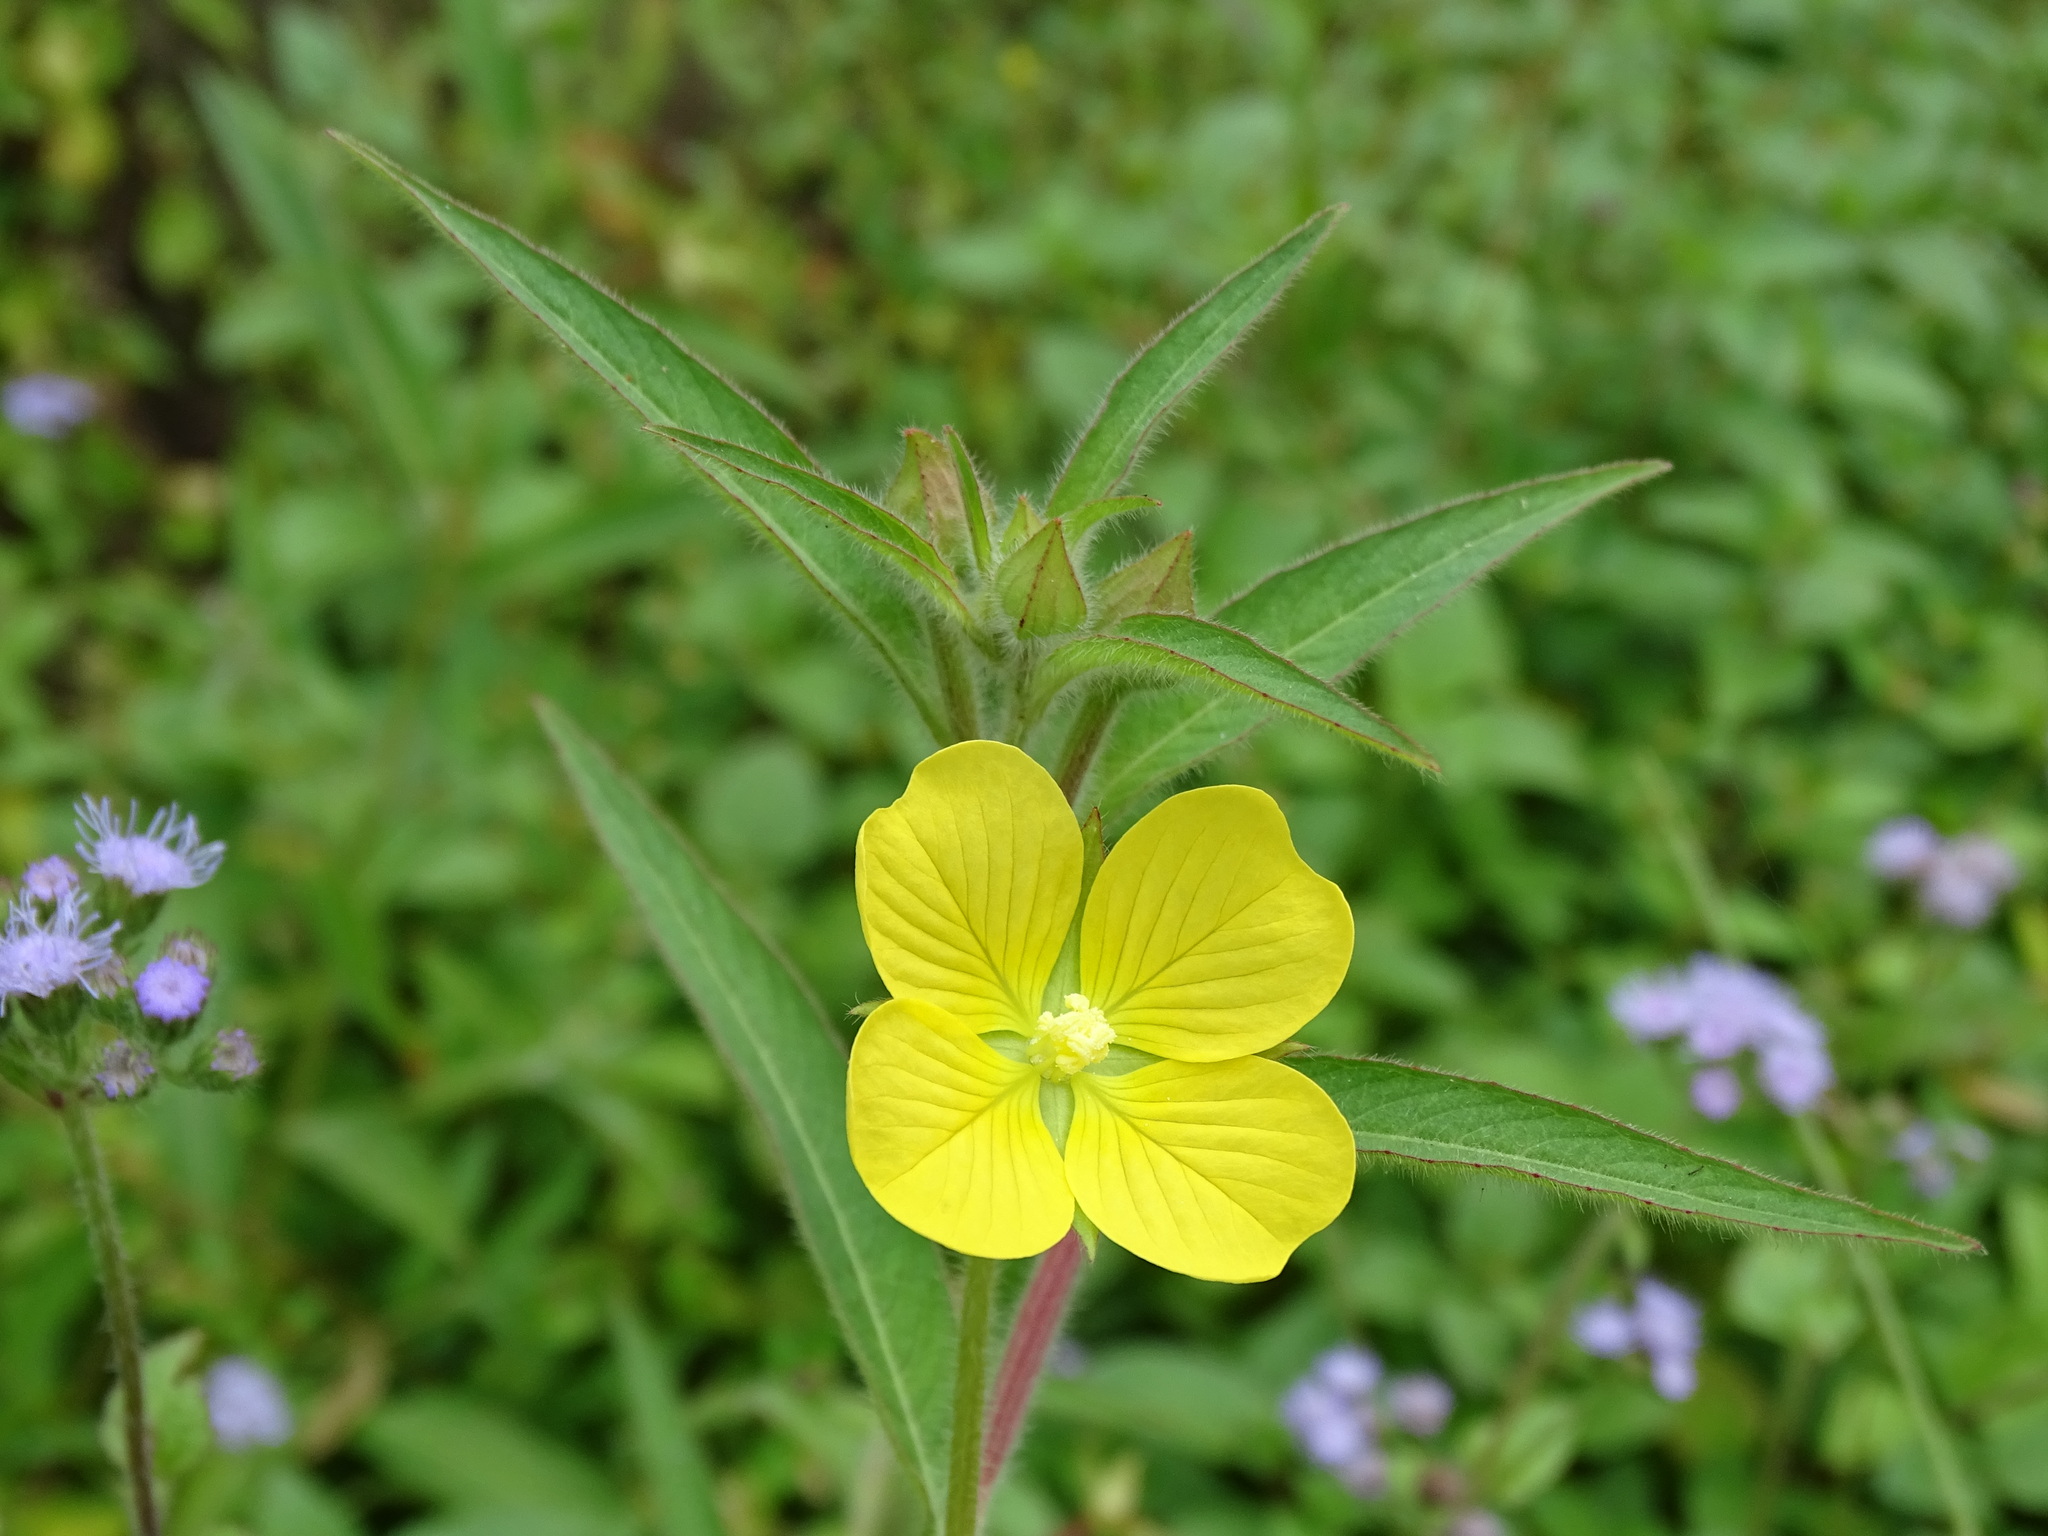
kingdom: Plantae
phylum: Tracheophyta
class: Magnoliopsida
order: Myrtales
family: Onagraceae
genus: Ludwigia
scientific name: Ludwigia octovalvis
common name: Water-primrose
